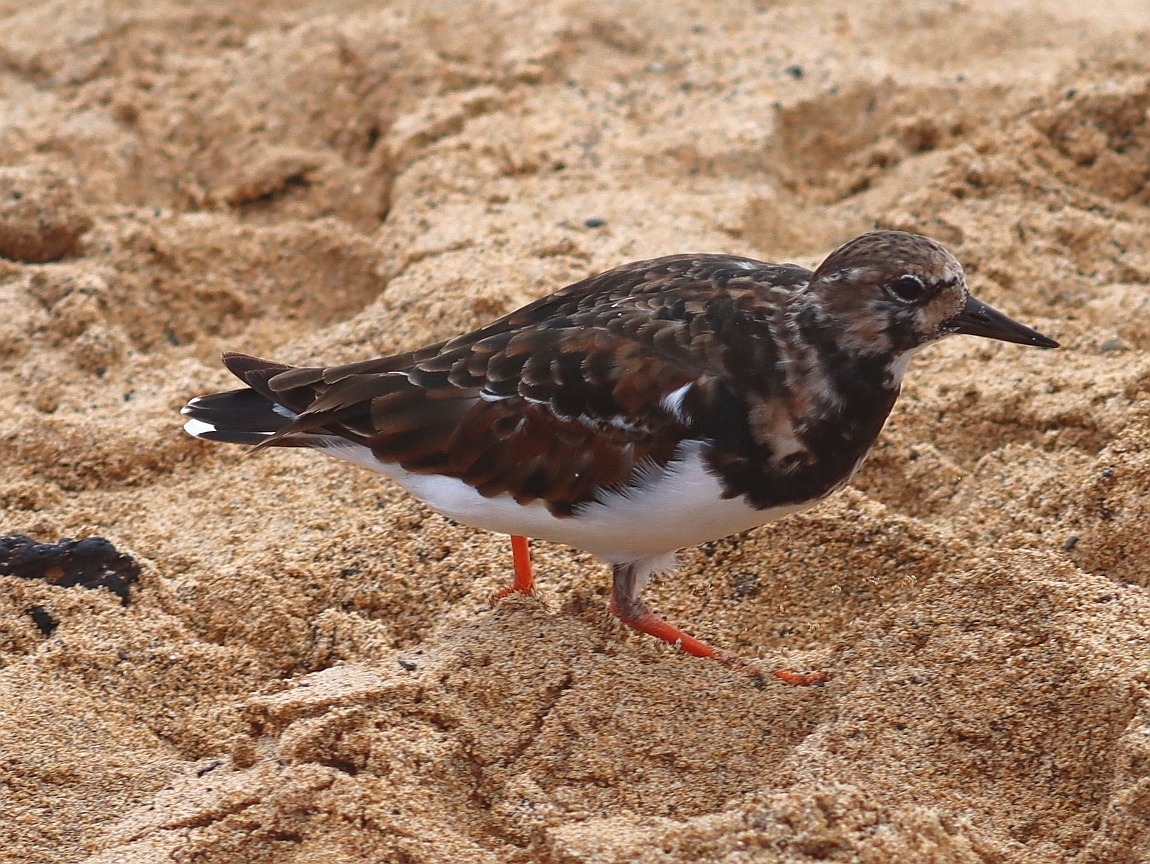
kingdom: Animalia
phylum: Chordata
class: Aves
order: Charadriiformes
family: Scolopacidae
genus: Arenaria
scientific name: Arenaria interpres
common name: Ruddy turnstone
